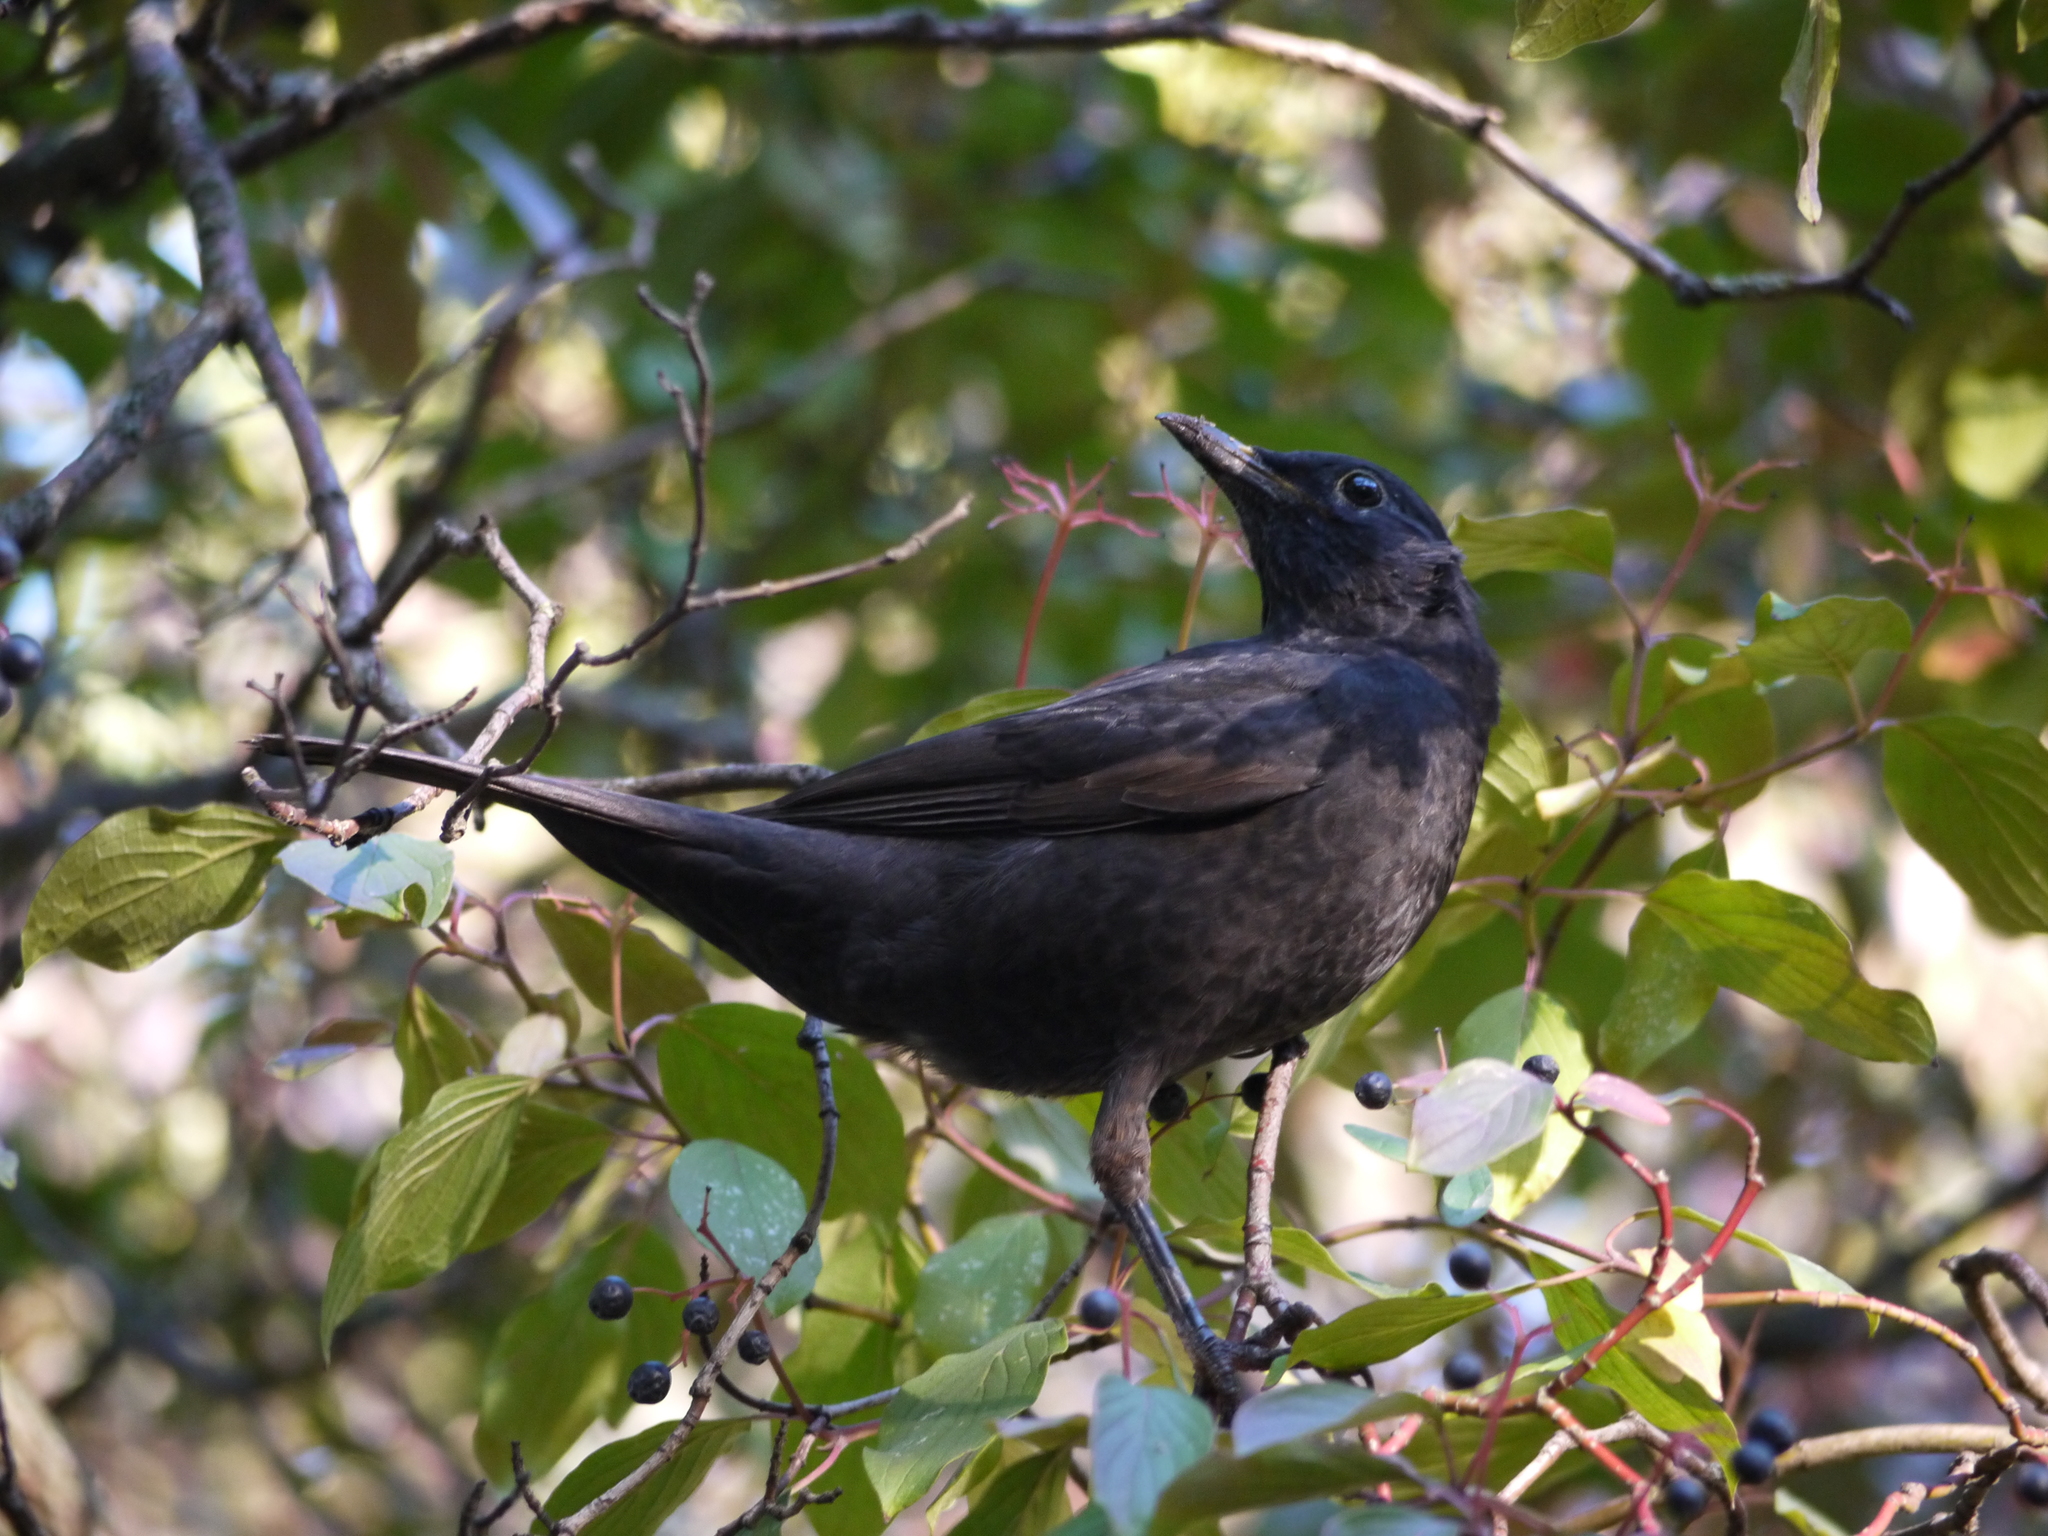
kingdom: Animalia
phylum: Chordata
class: Aves
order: Passeriformes
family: Turdidae
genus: Turdus
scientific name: Turdus merula
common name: Common blackbird
